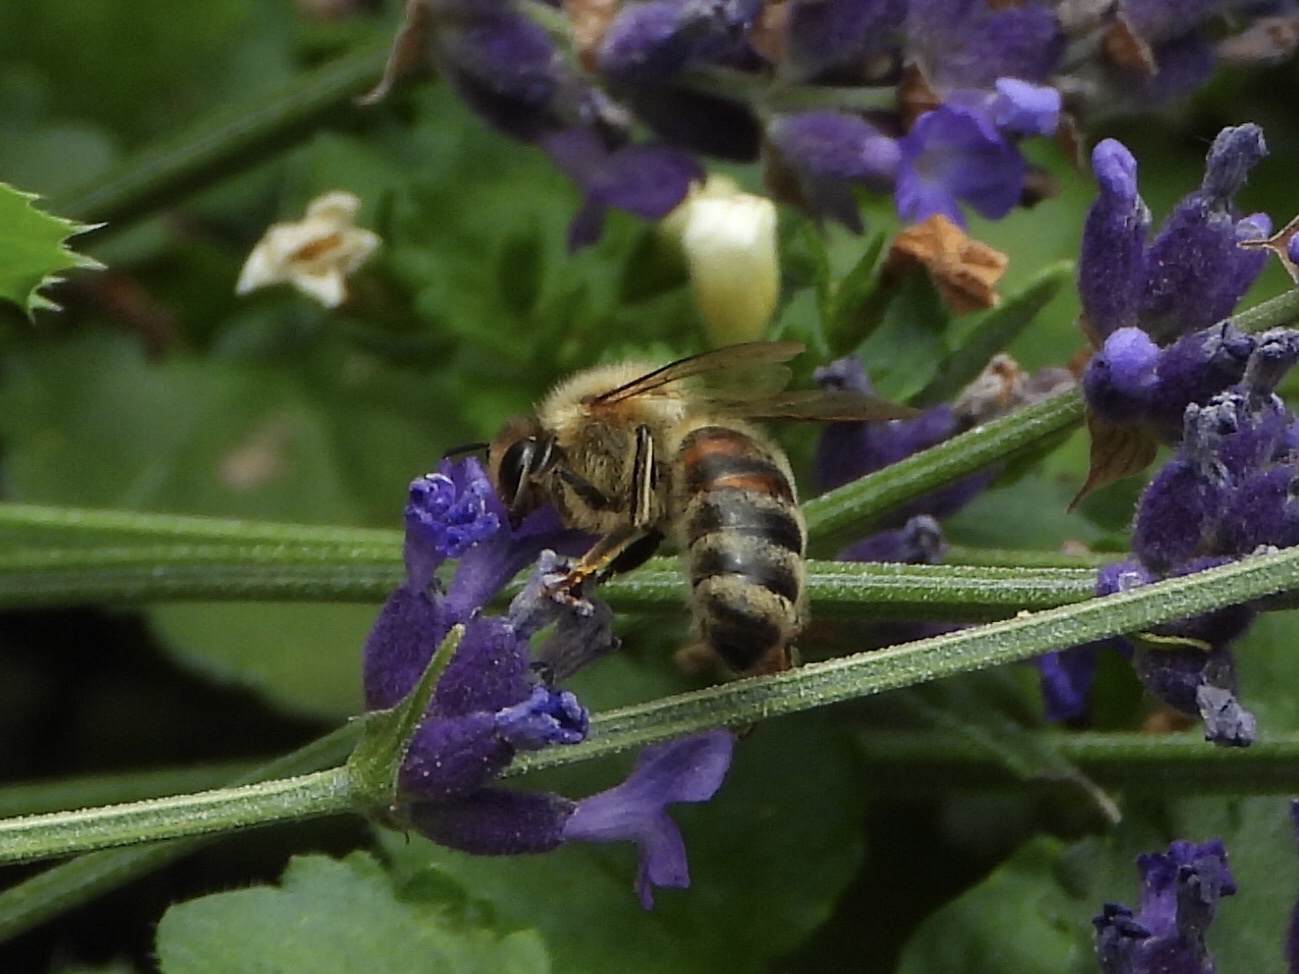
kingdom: Animalia
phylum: Arthropoda
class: Insecta
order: Hymenoptera
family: Apidae
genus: Apis
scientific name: Apis mellifera
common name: Honey bee
